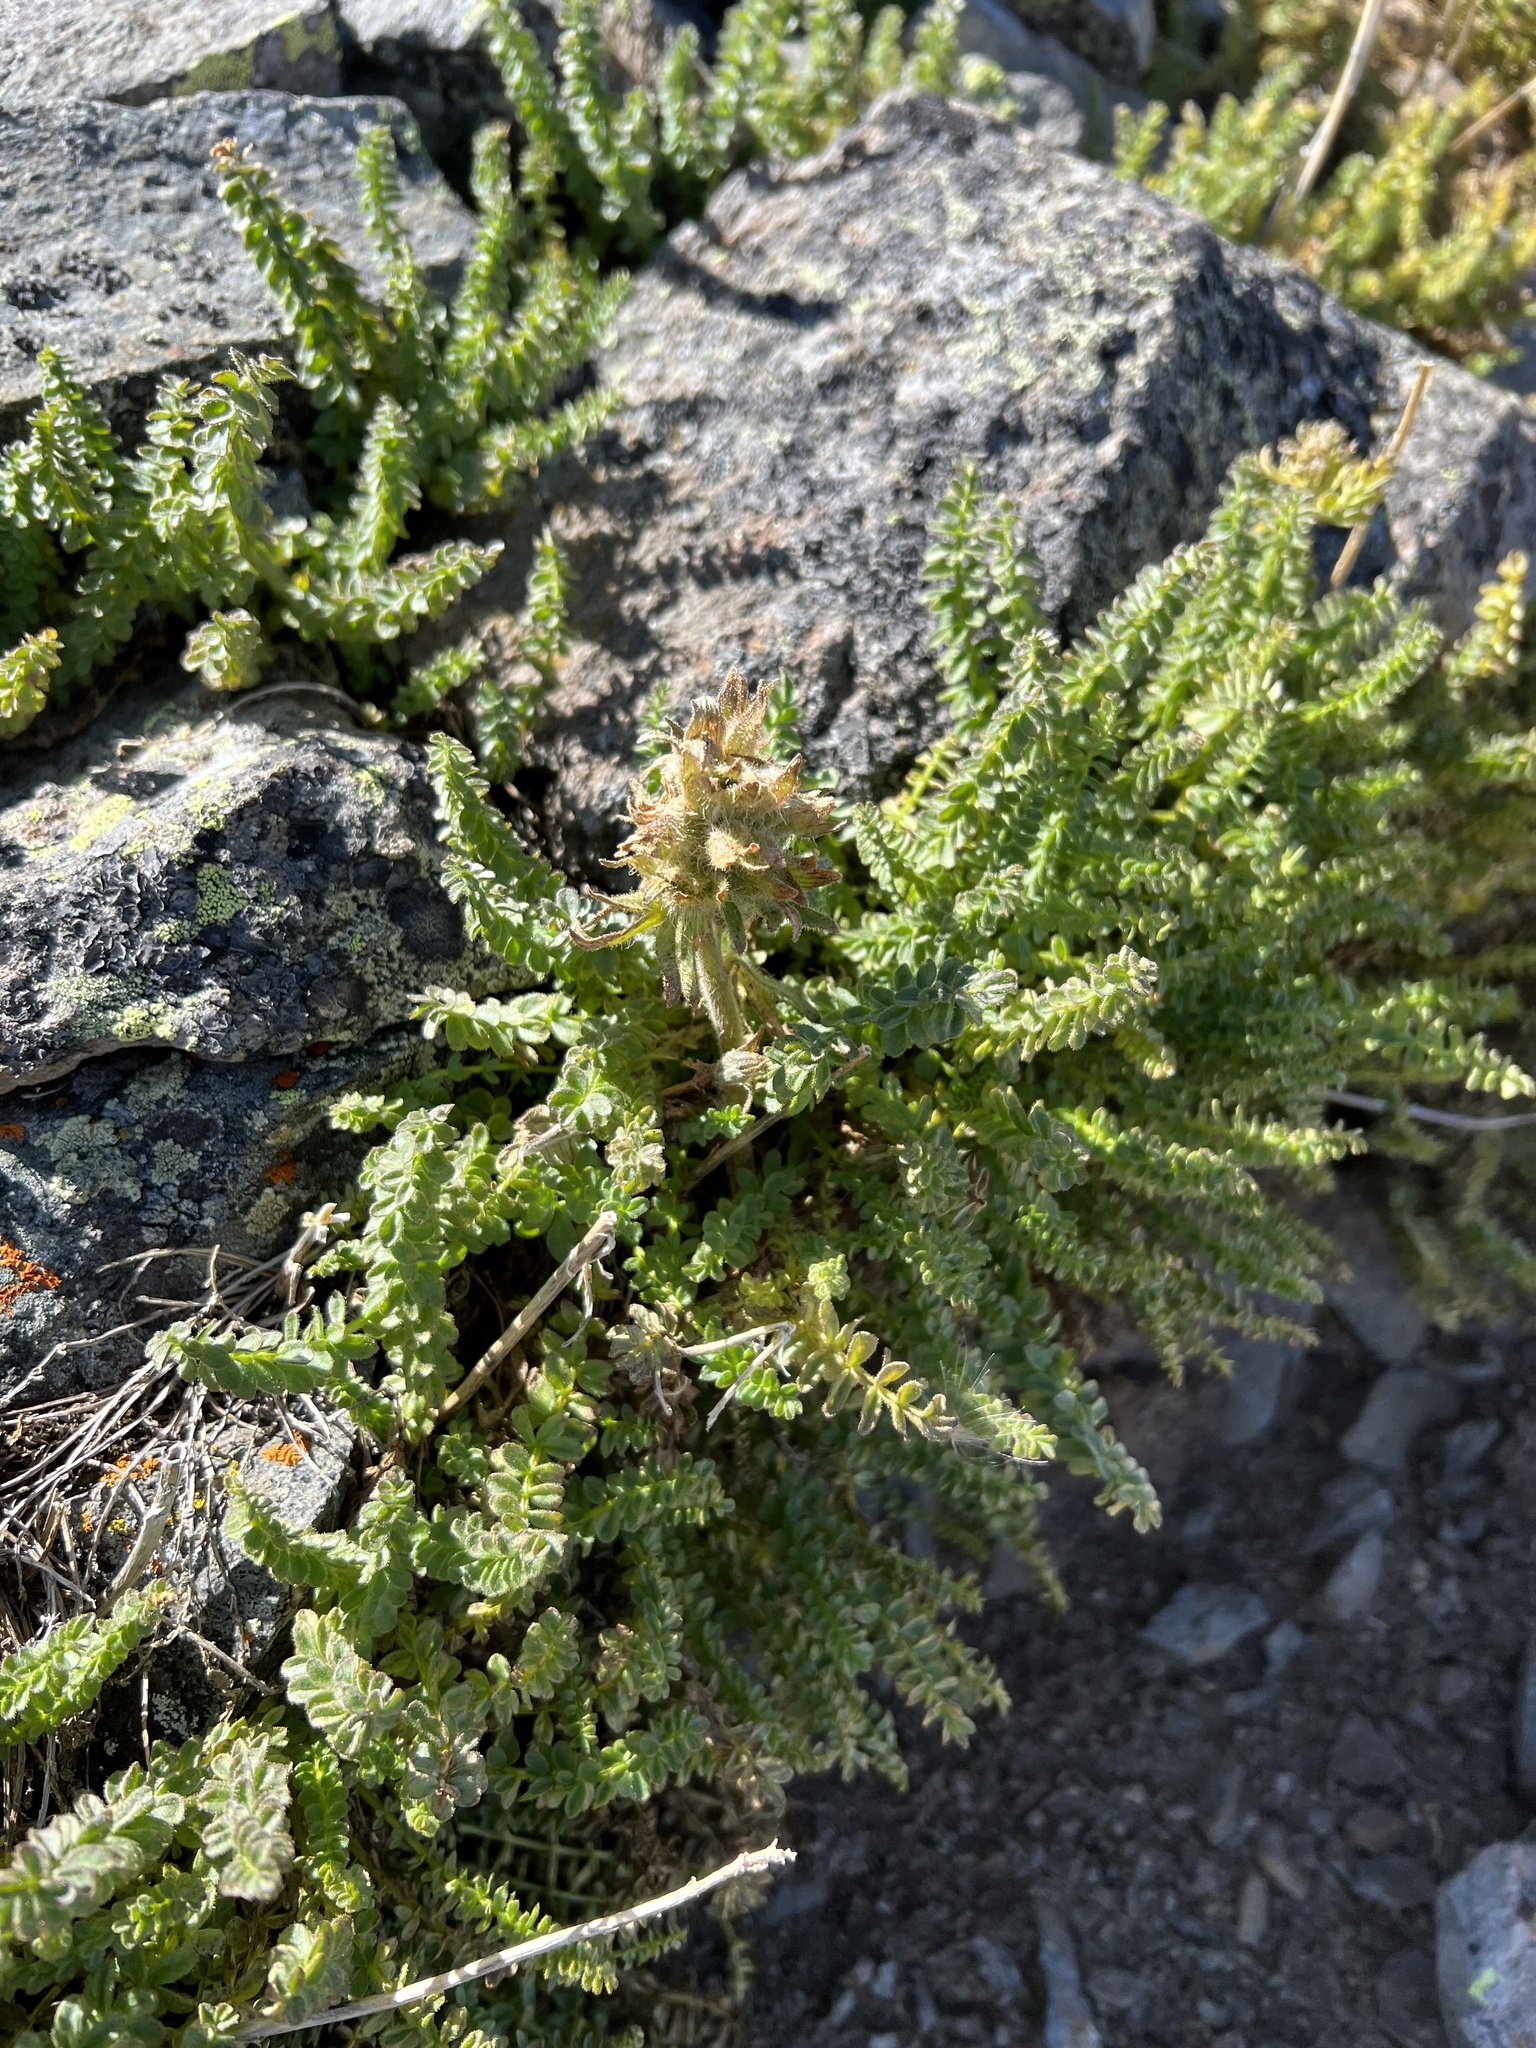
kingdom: Plantae
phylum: Tracheophyta
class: Magnoliopsida
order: Ericales
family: Polemoniaceae
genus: Polemonium
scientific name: Polemonium viscosum
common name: Skunk jacob's-ladder
